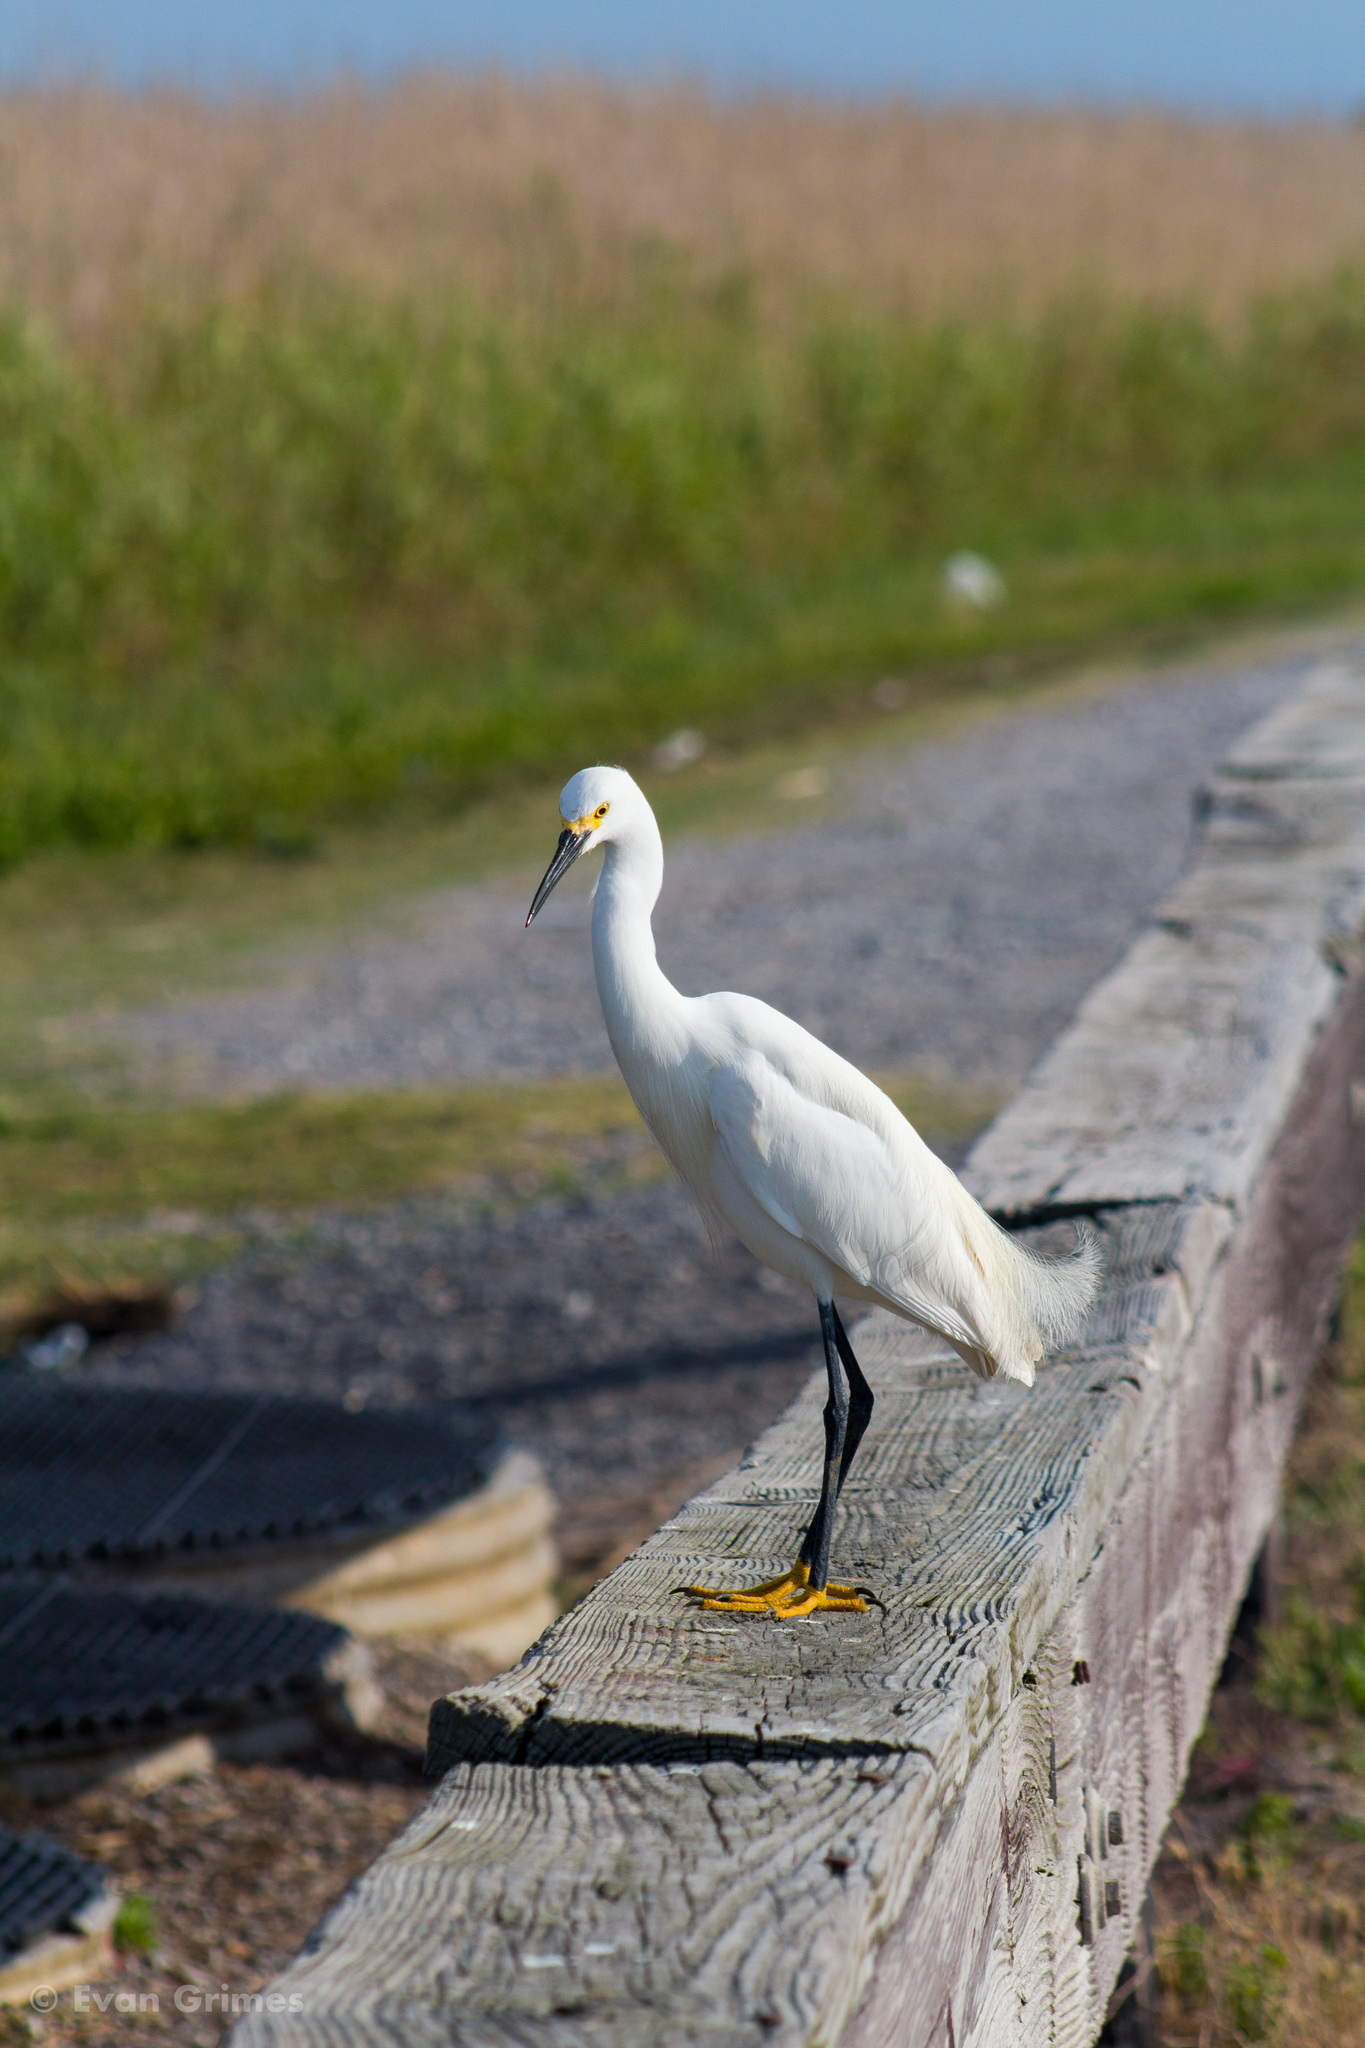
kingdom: Animalia
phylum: Chordata
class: Aves
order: Pelecaniformes
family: Ardeidae
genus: Egretta
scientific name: Egretta thula
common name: Snowy egret
